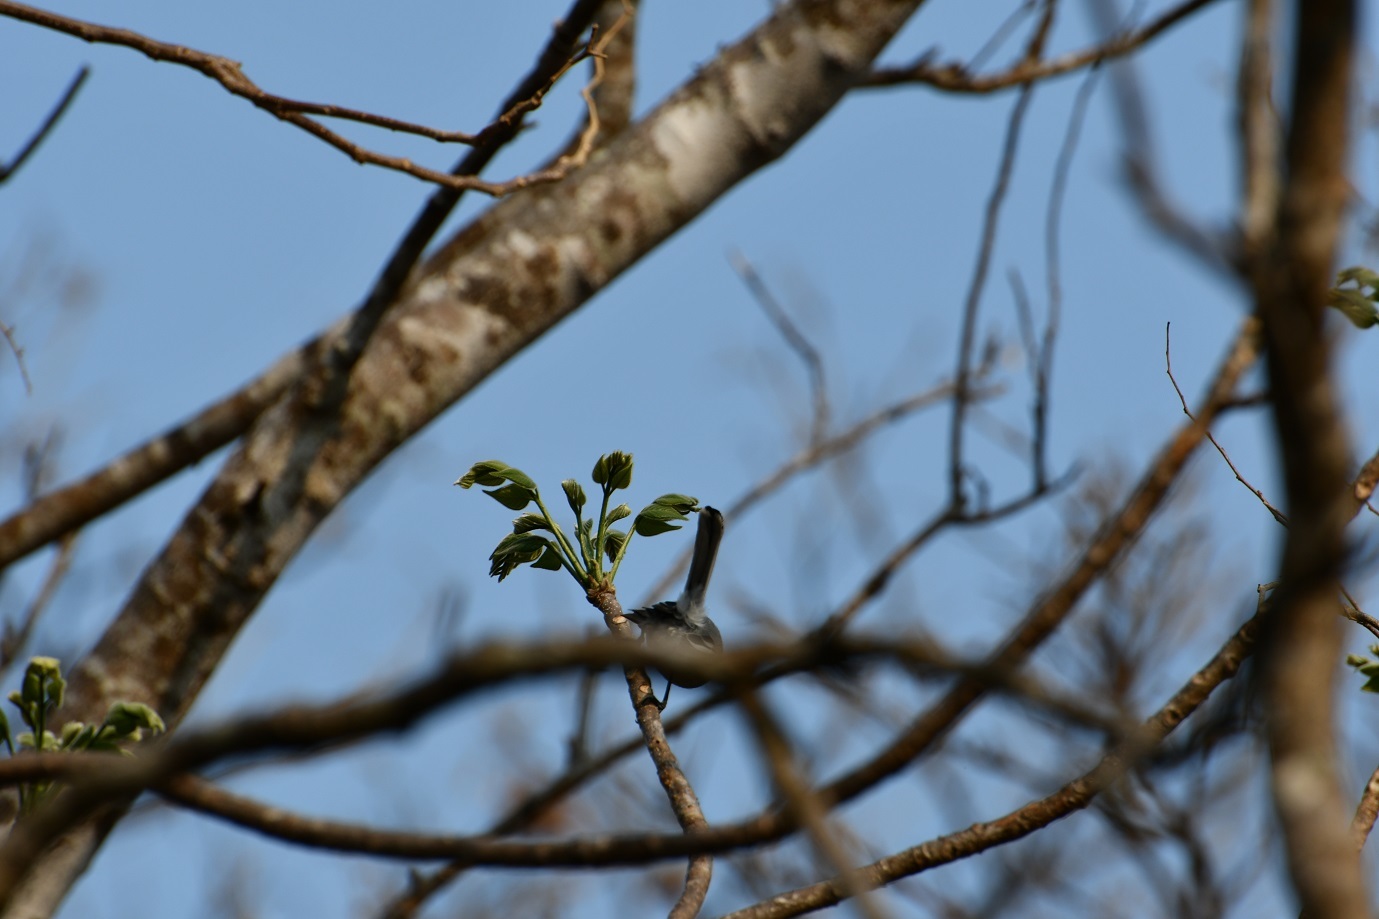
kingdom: Plantae
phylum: Tracheophyta
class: Magnoliopsida
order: Sapindales
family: Burseraceae
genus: Bursera
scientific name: Bursera excelsa
